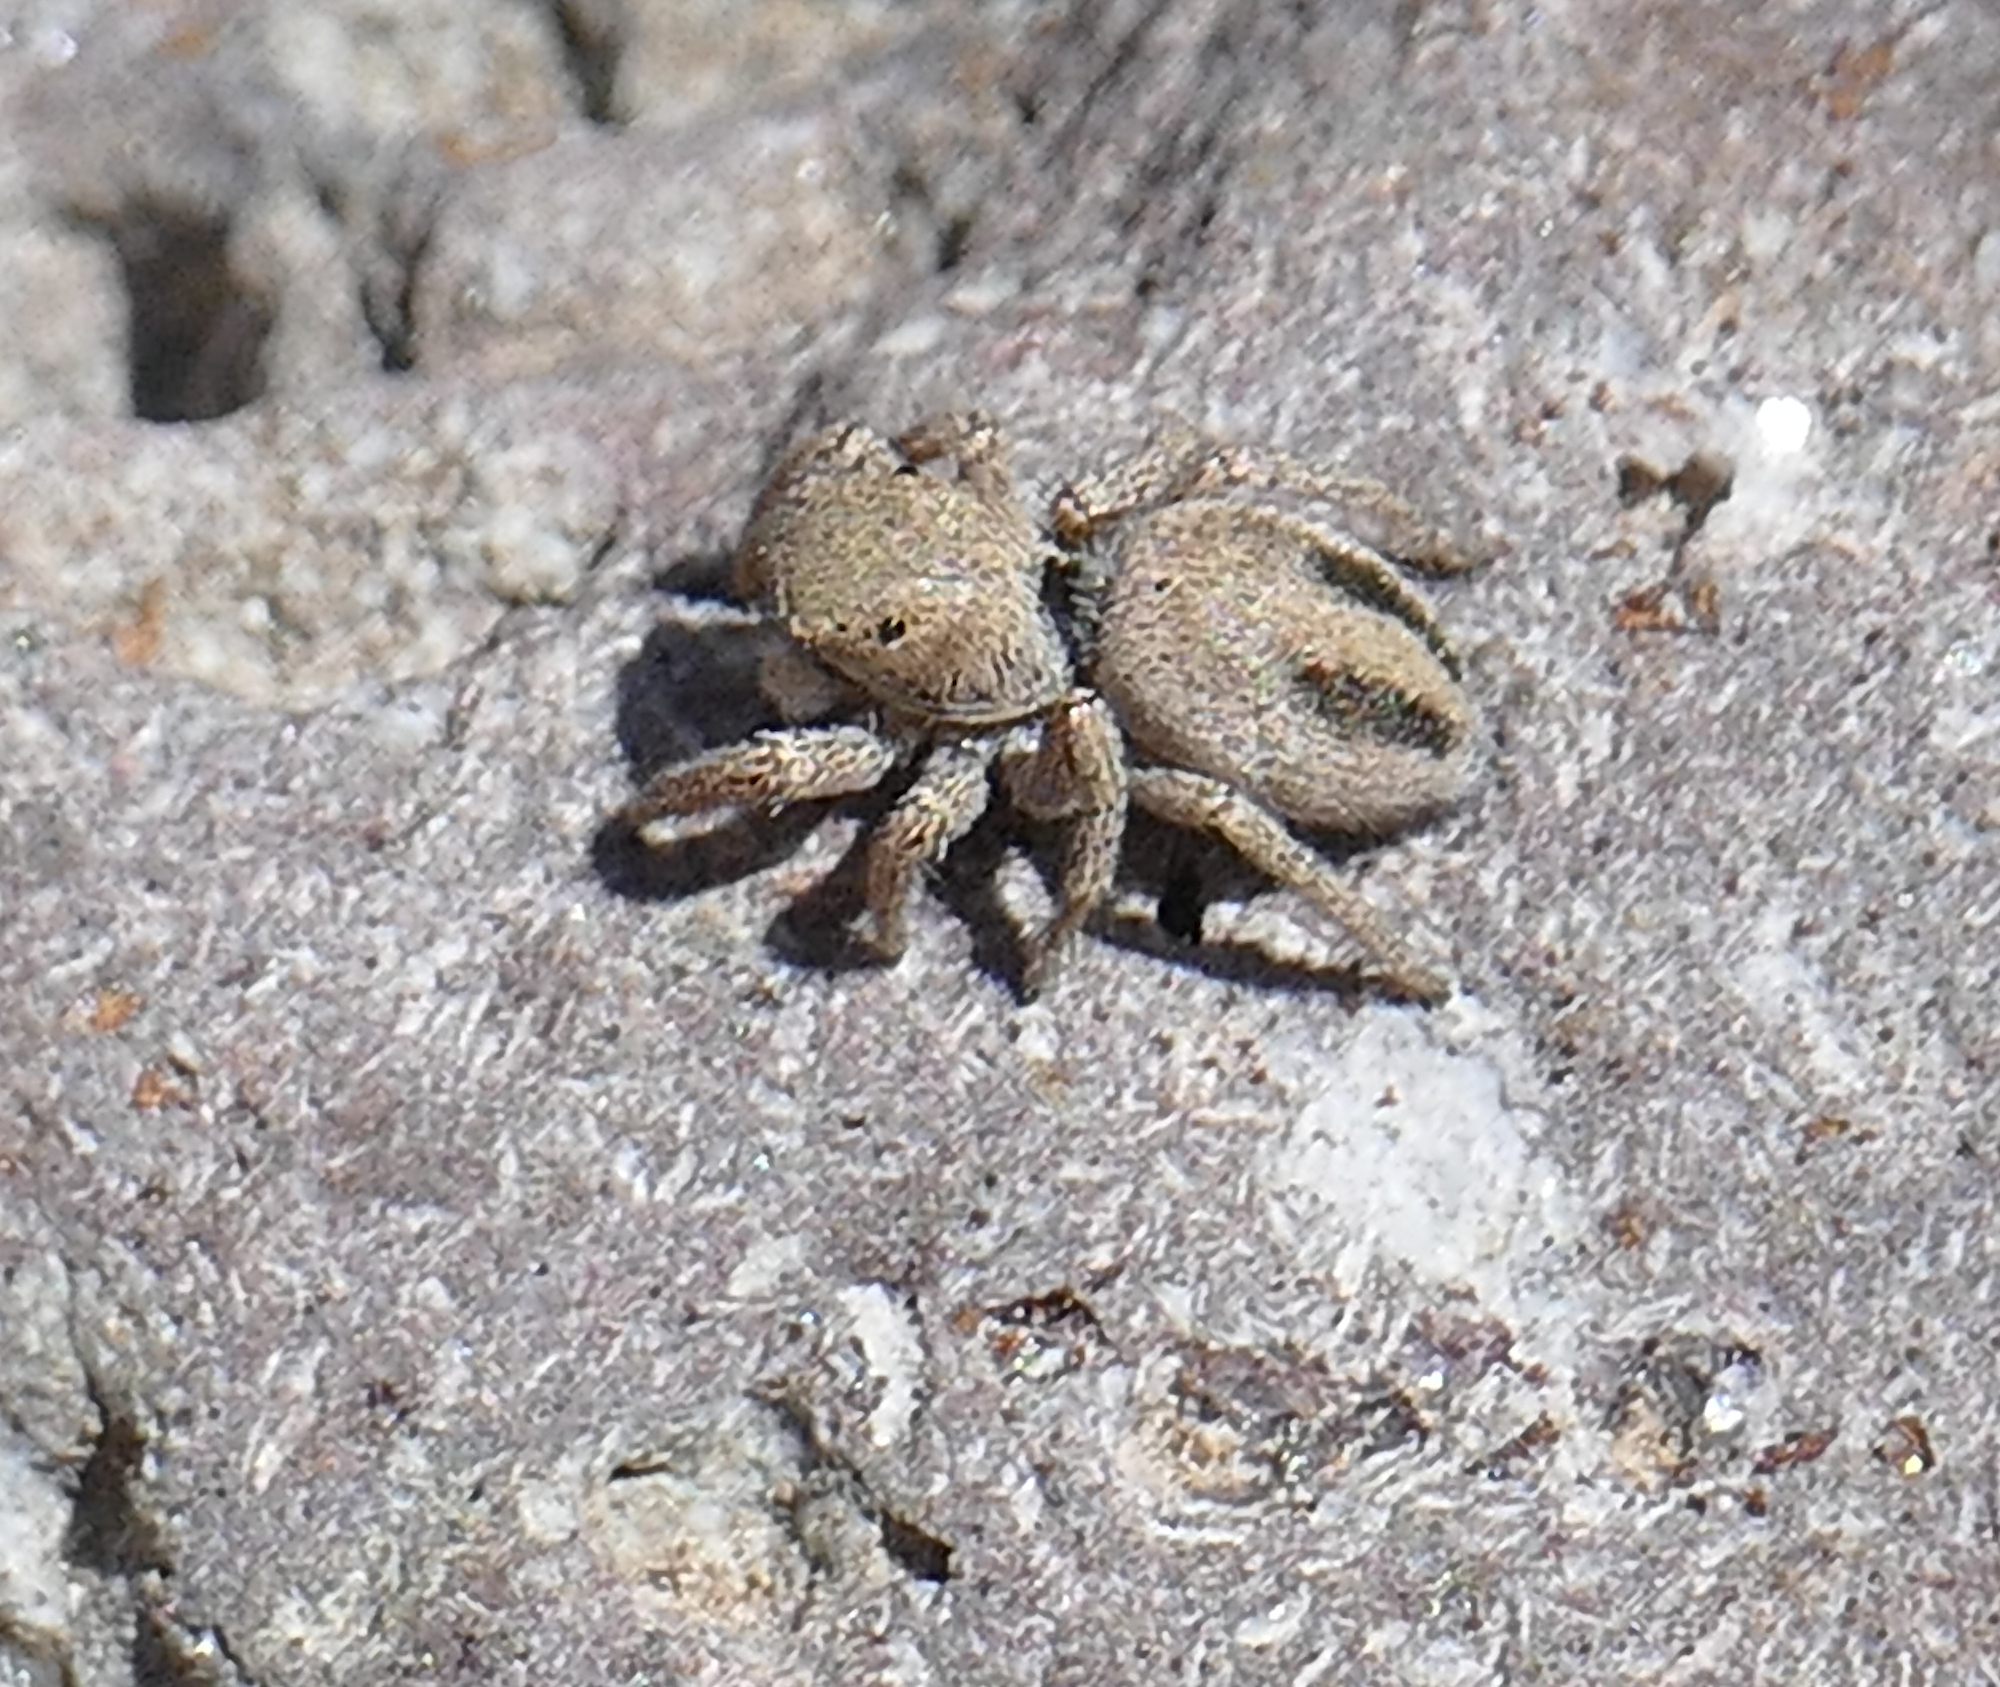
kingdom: Animalia
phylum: Arthropoda
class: Arachnida
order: Araneae
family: Salticidae
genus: Habronattus
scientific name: Habronattus virgulatus
